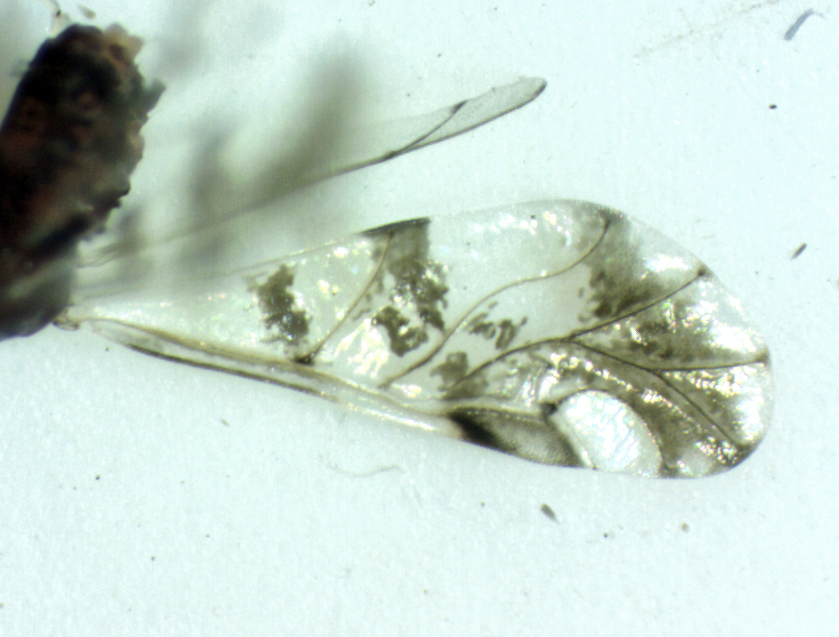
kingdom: Animalia
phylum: Arthropoda
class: Insecta
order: Hemiptera
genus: Neomyzocallis
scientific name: Neomyzocallis
